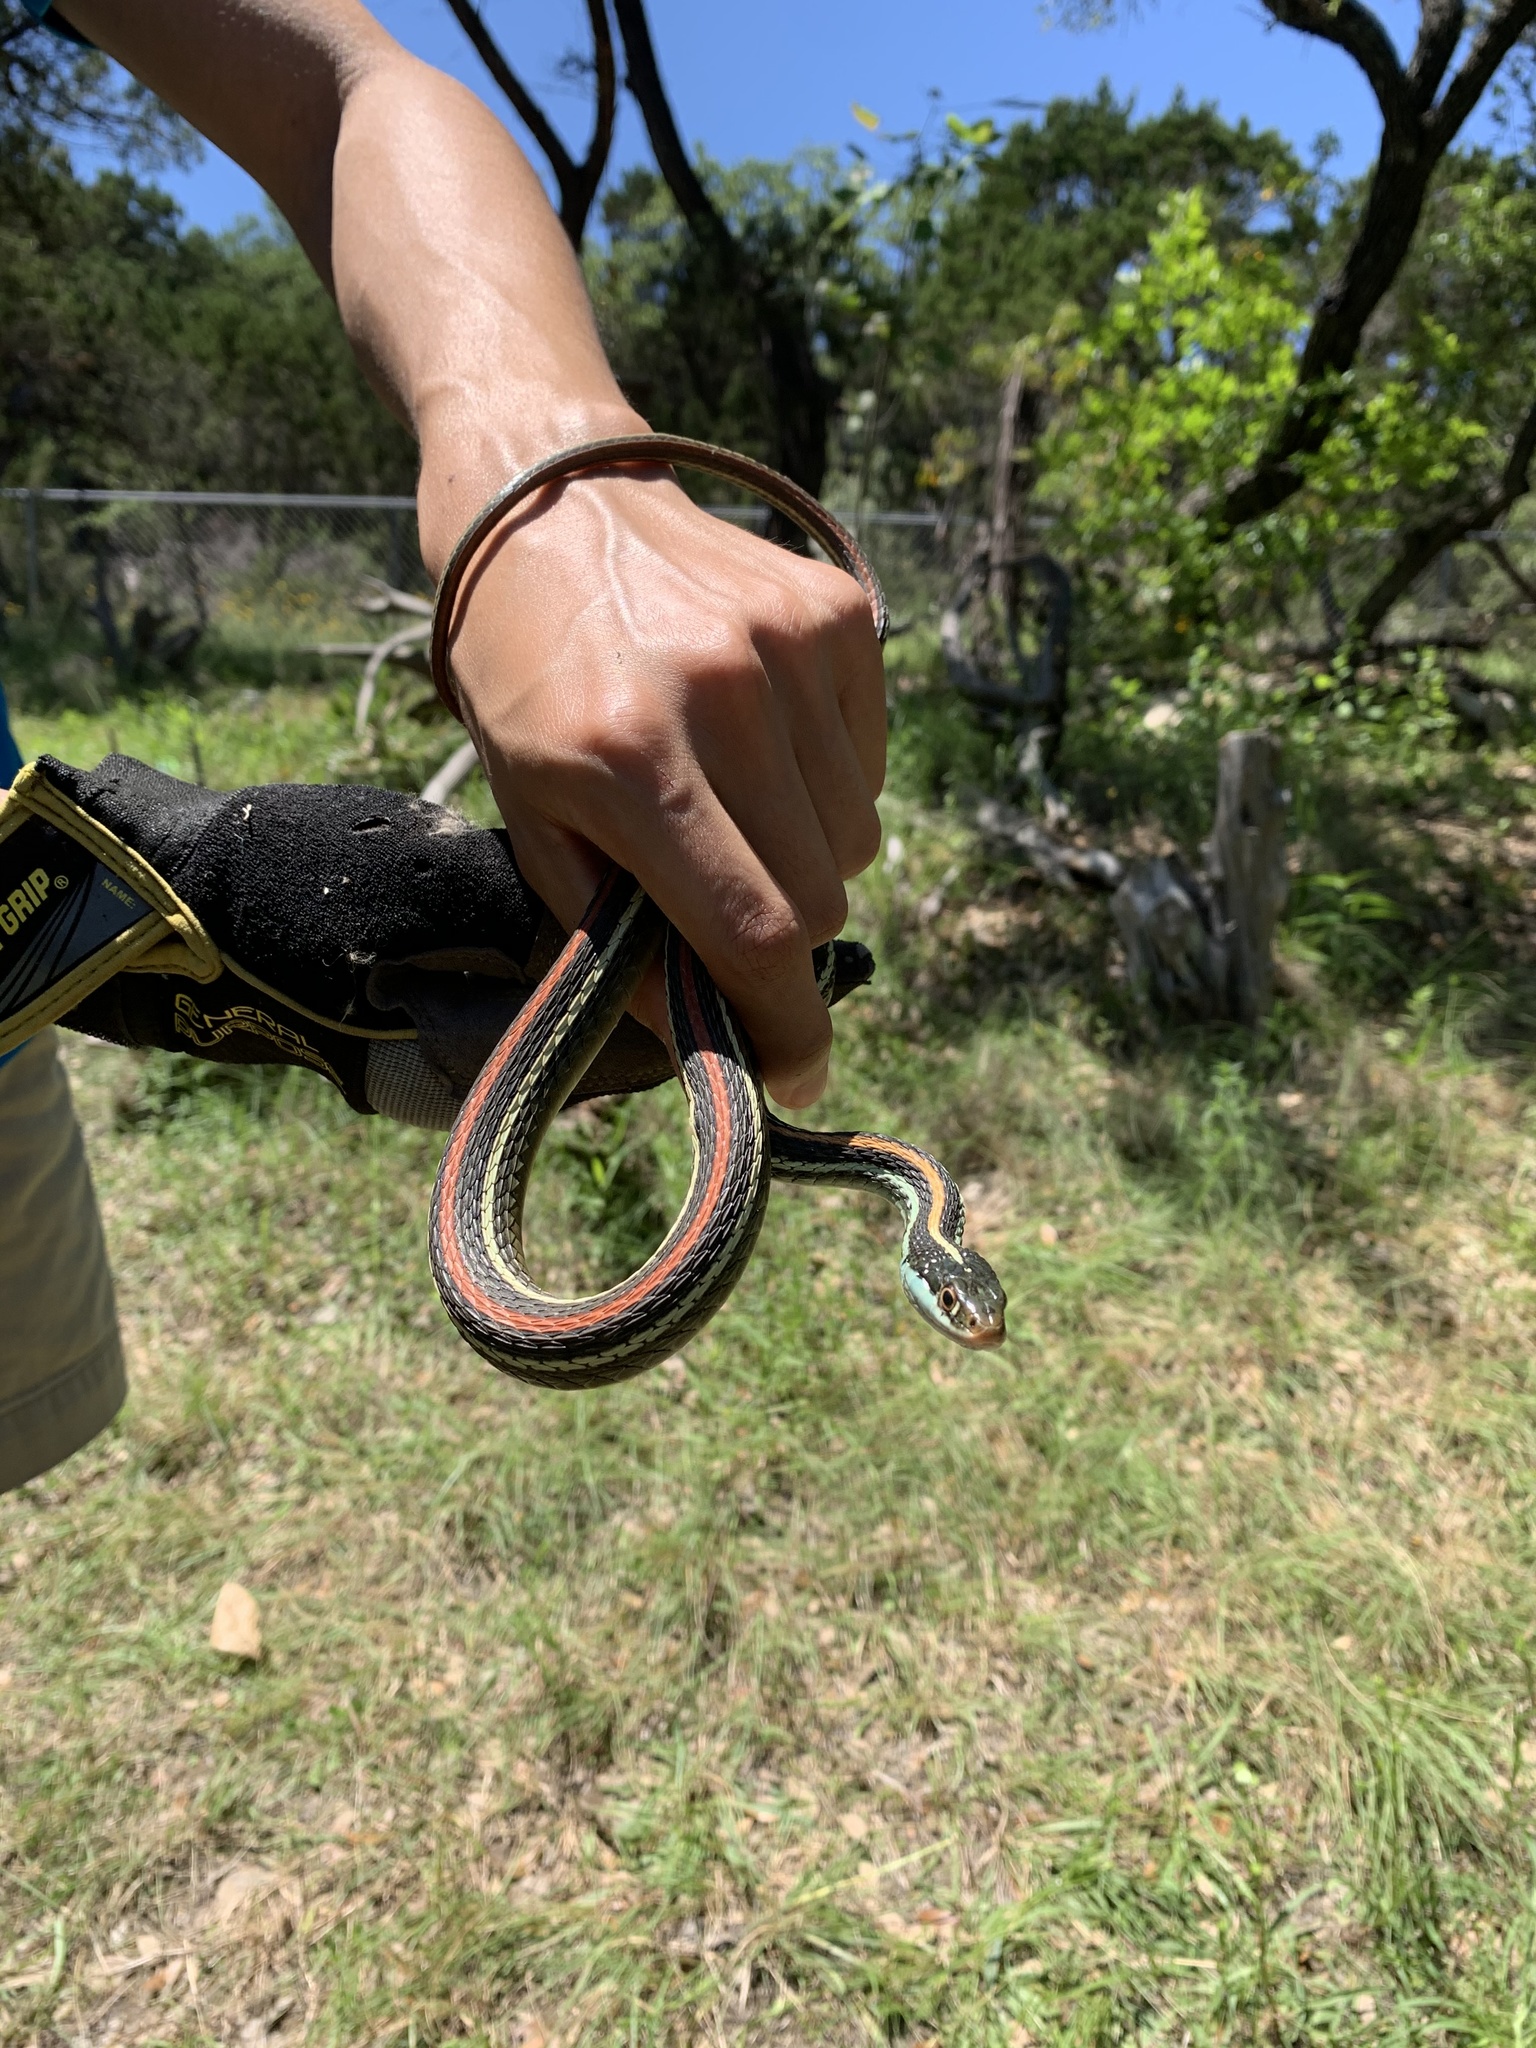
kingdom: Animalia
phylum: Chordata
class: Squamata
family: Colubridae
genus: Thamnophis
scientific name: Thamnophis proximus
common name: Western ribbon snake
